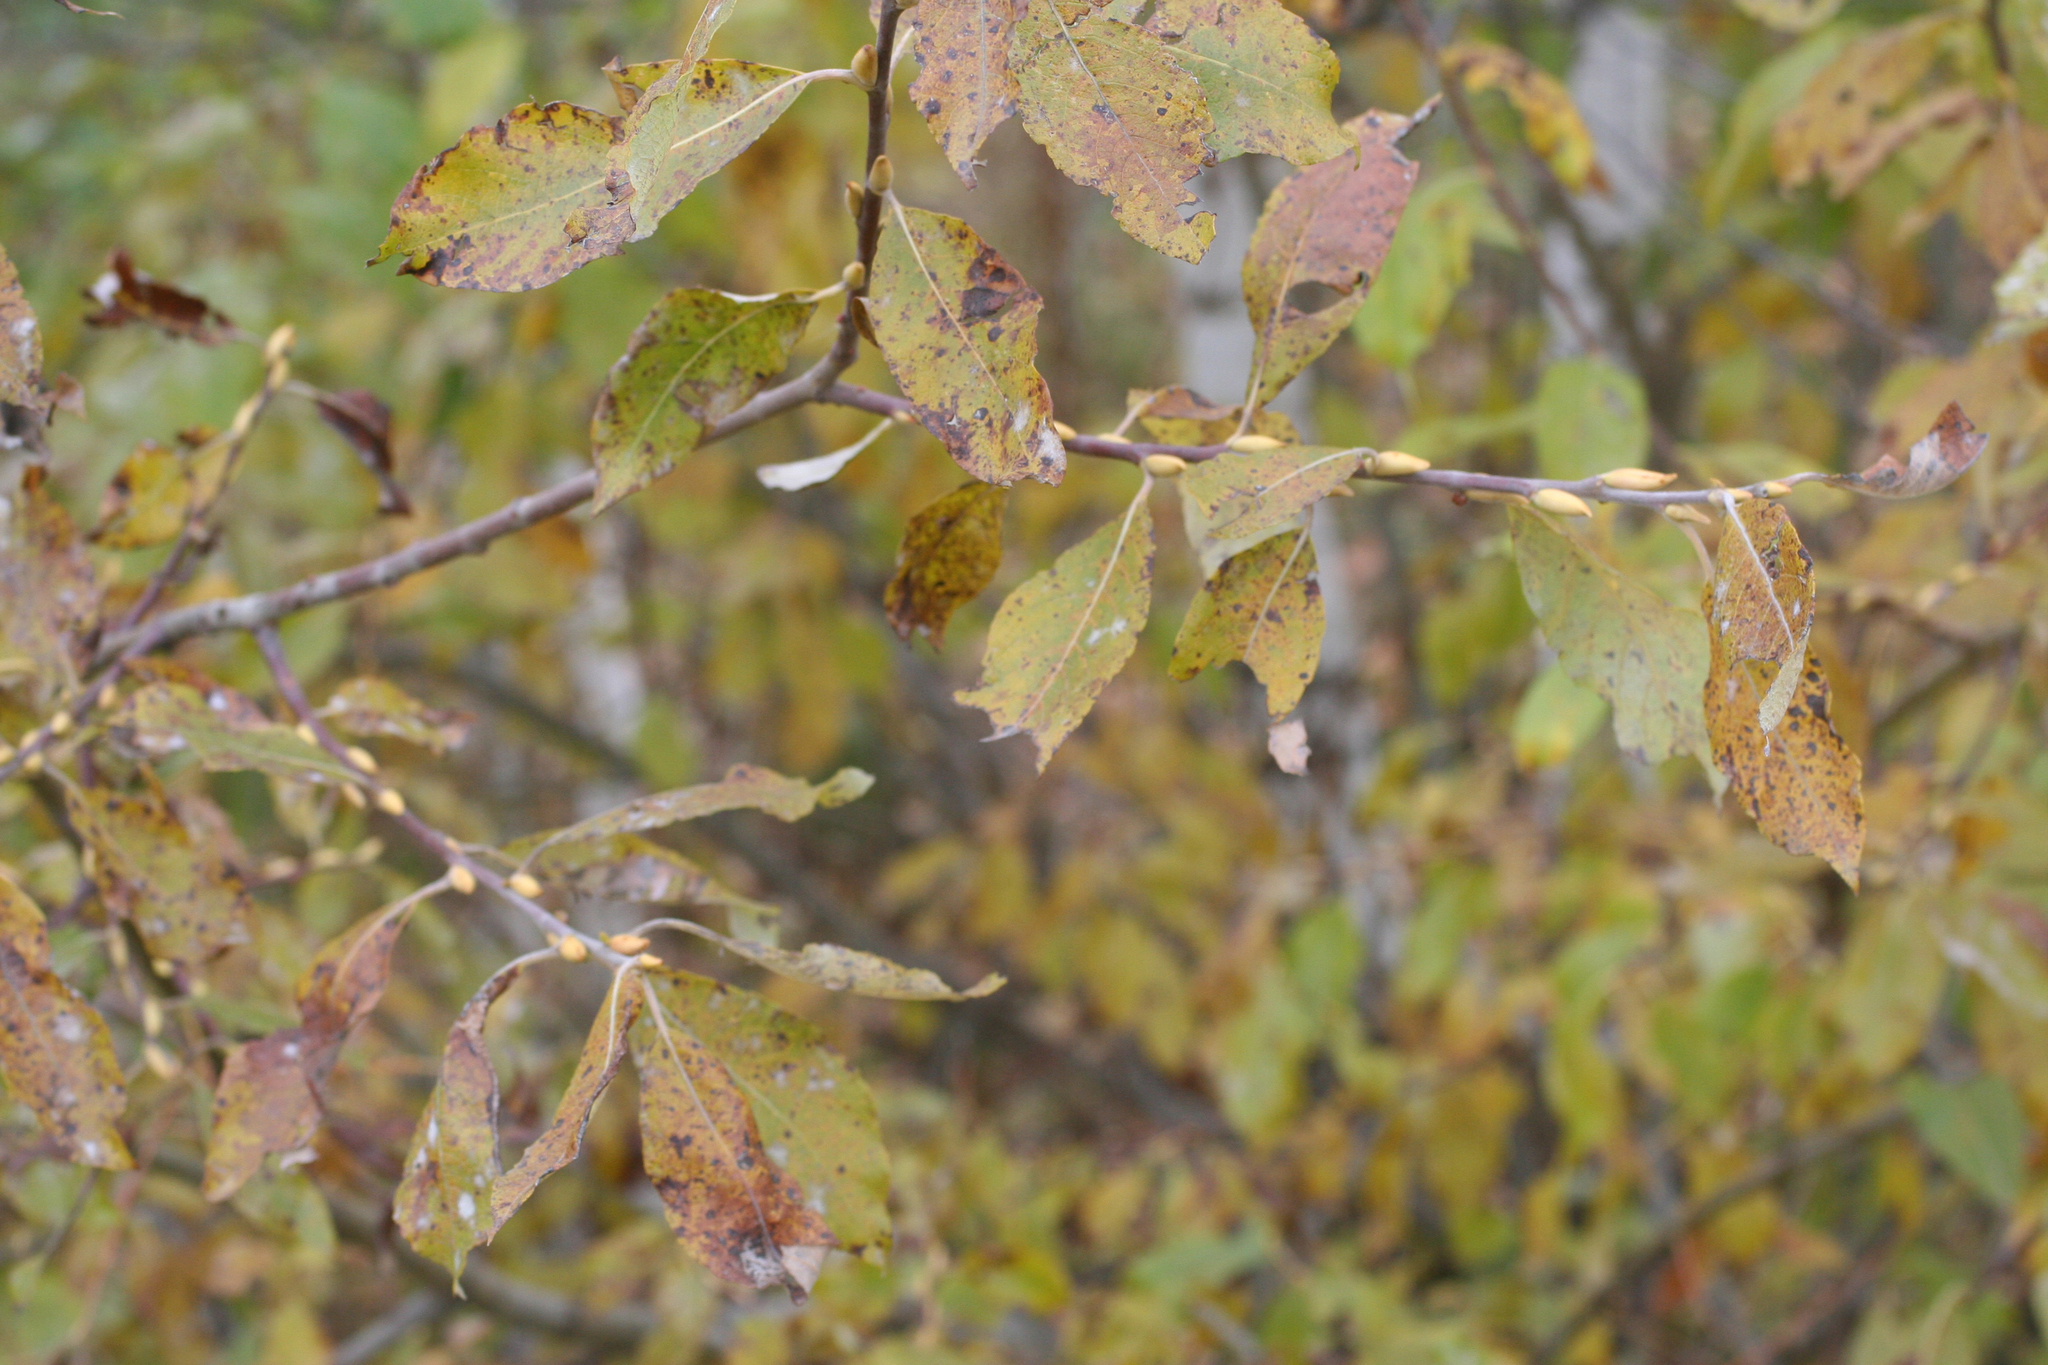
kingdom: Plantae
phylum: Tracheophyta
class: Magnoliopsida
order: Malpighiales
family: Salicaceae
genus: Salix
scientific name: Salix caprea
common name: Goat willow
